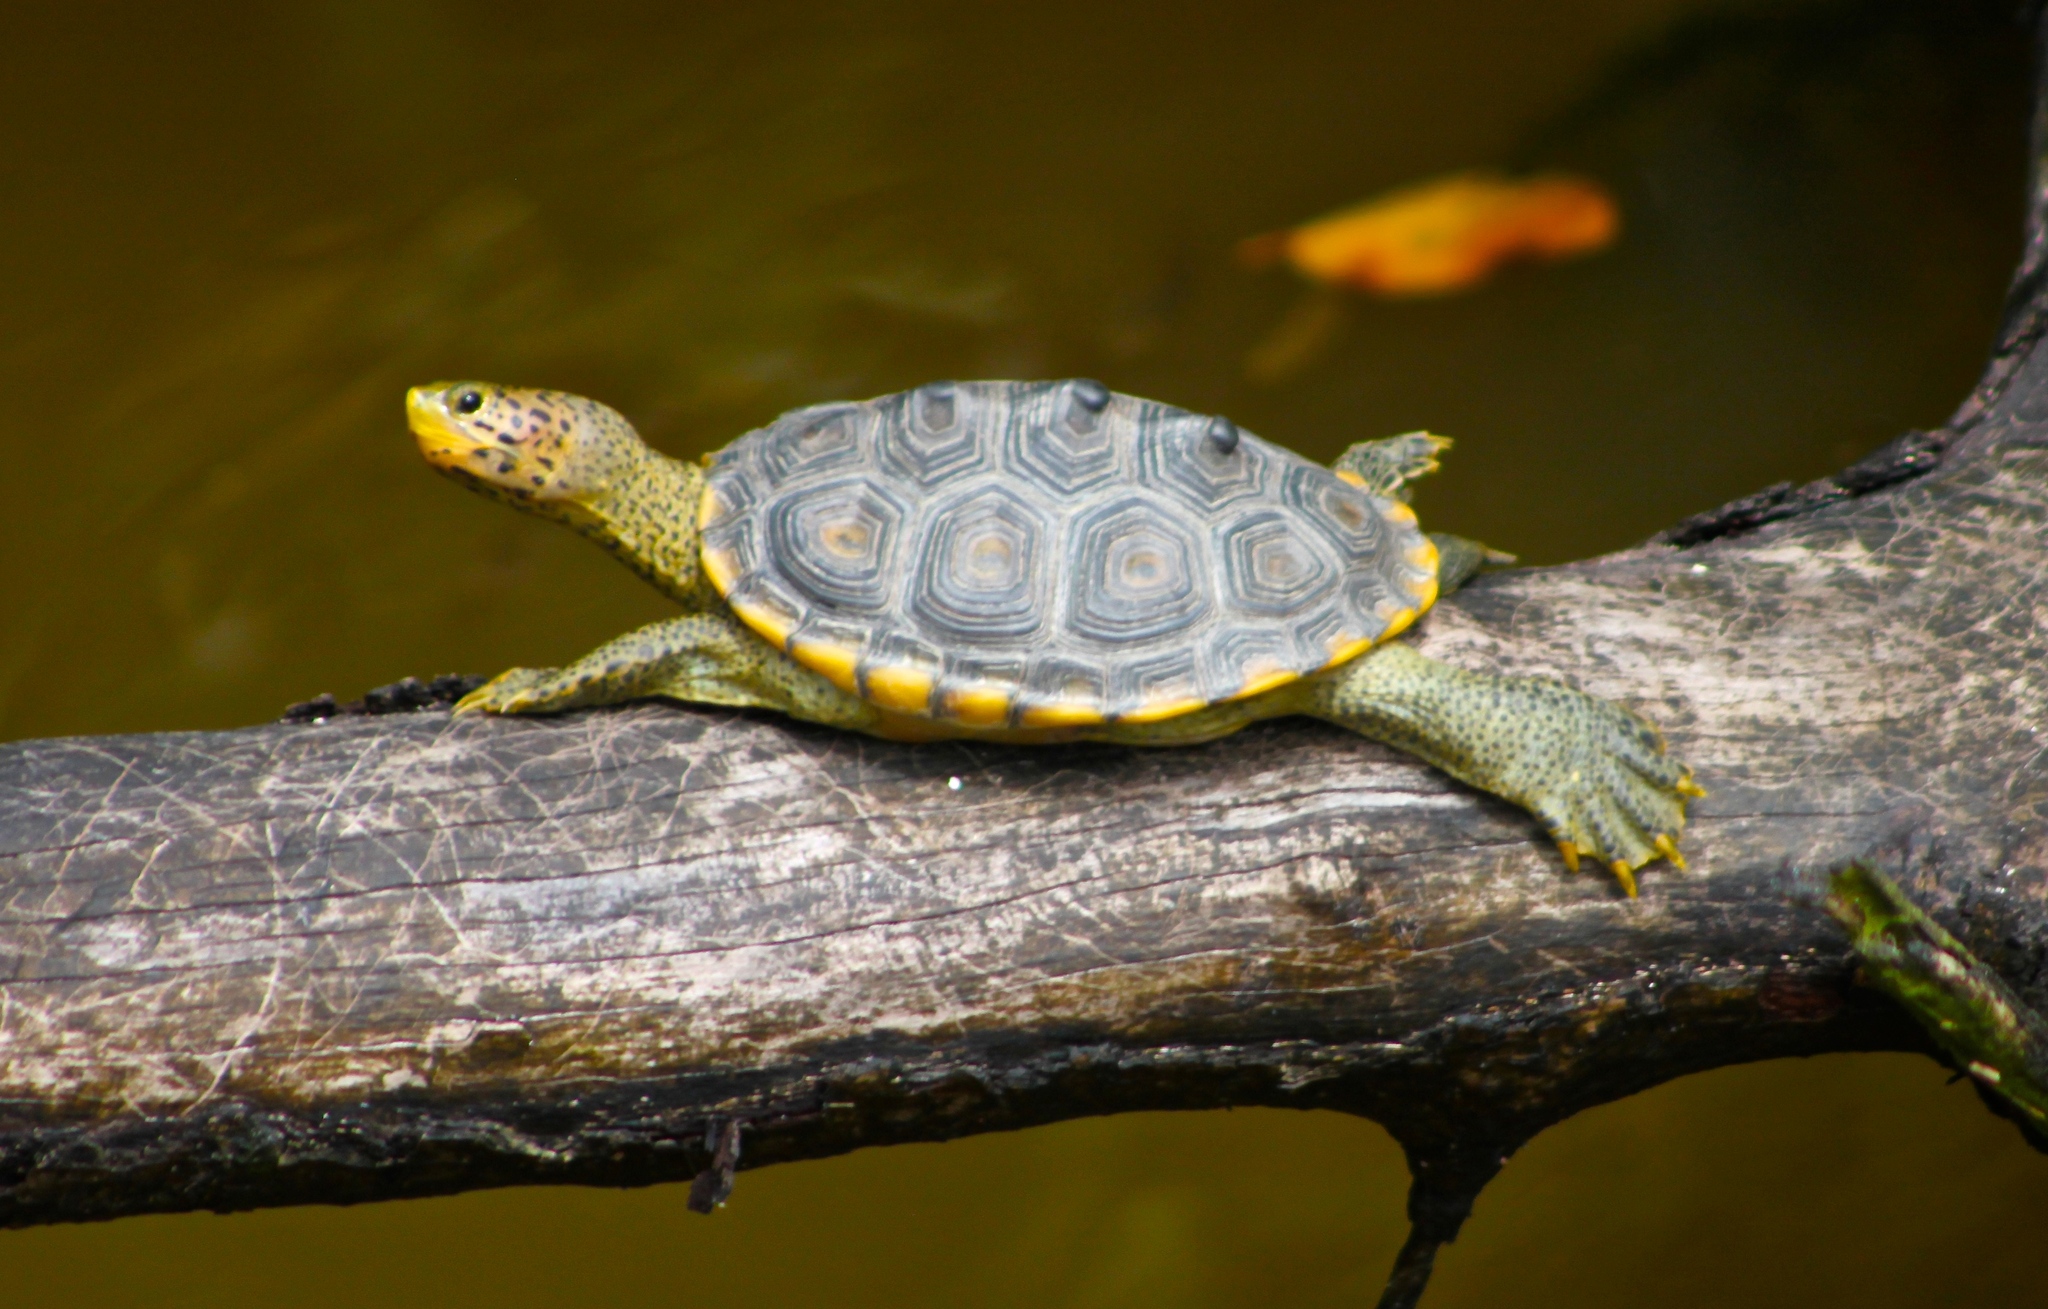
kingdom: Animalia
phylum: Chordata
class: Testudines
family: Emydidae
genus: Malaclemys
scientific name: Malaclemys terrapin
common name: Diamondback terrapin
